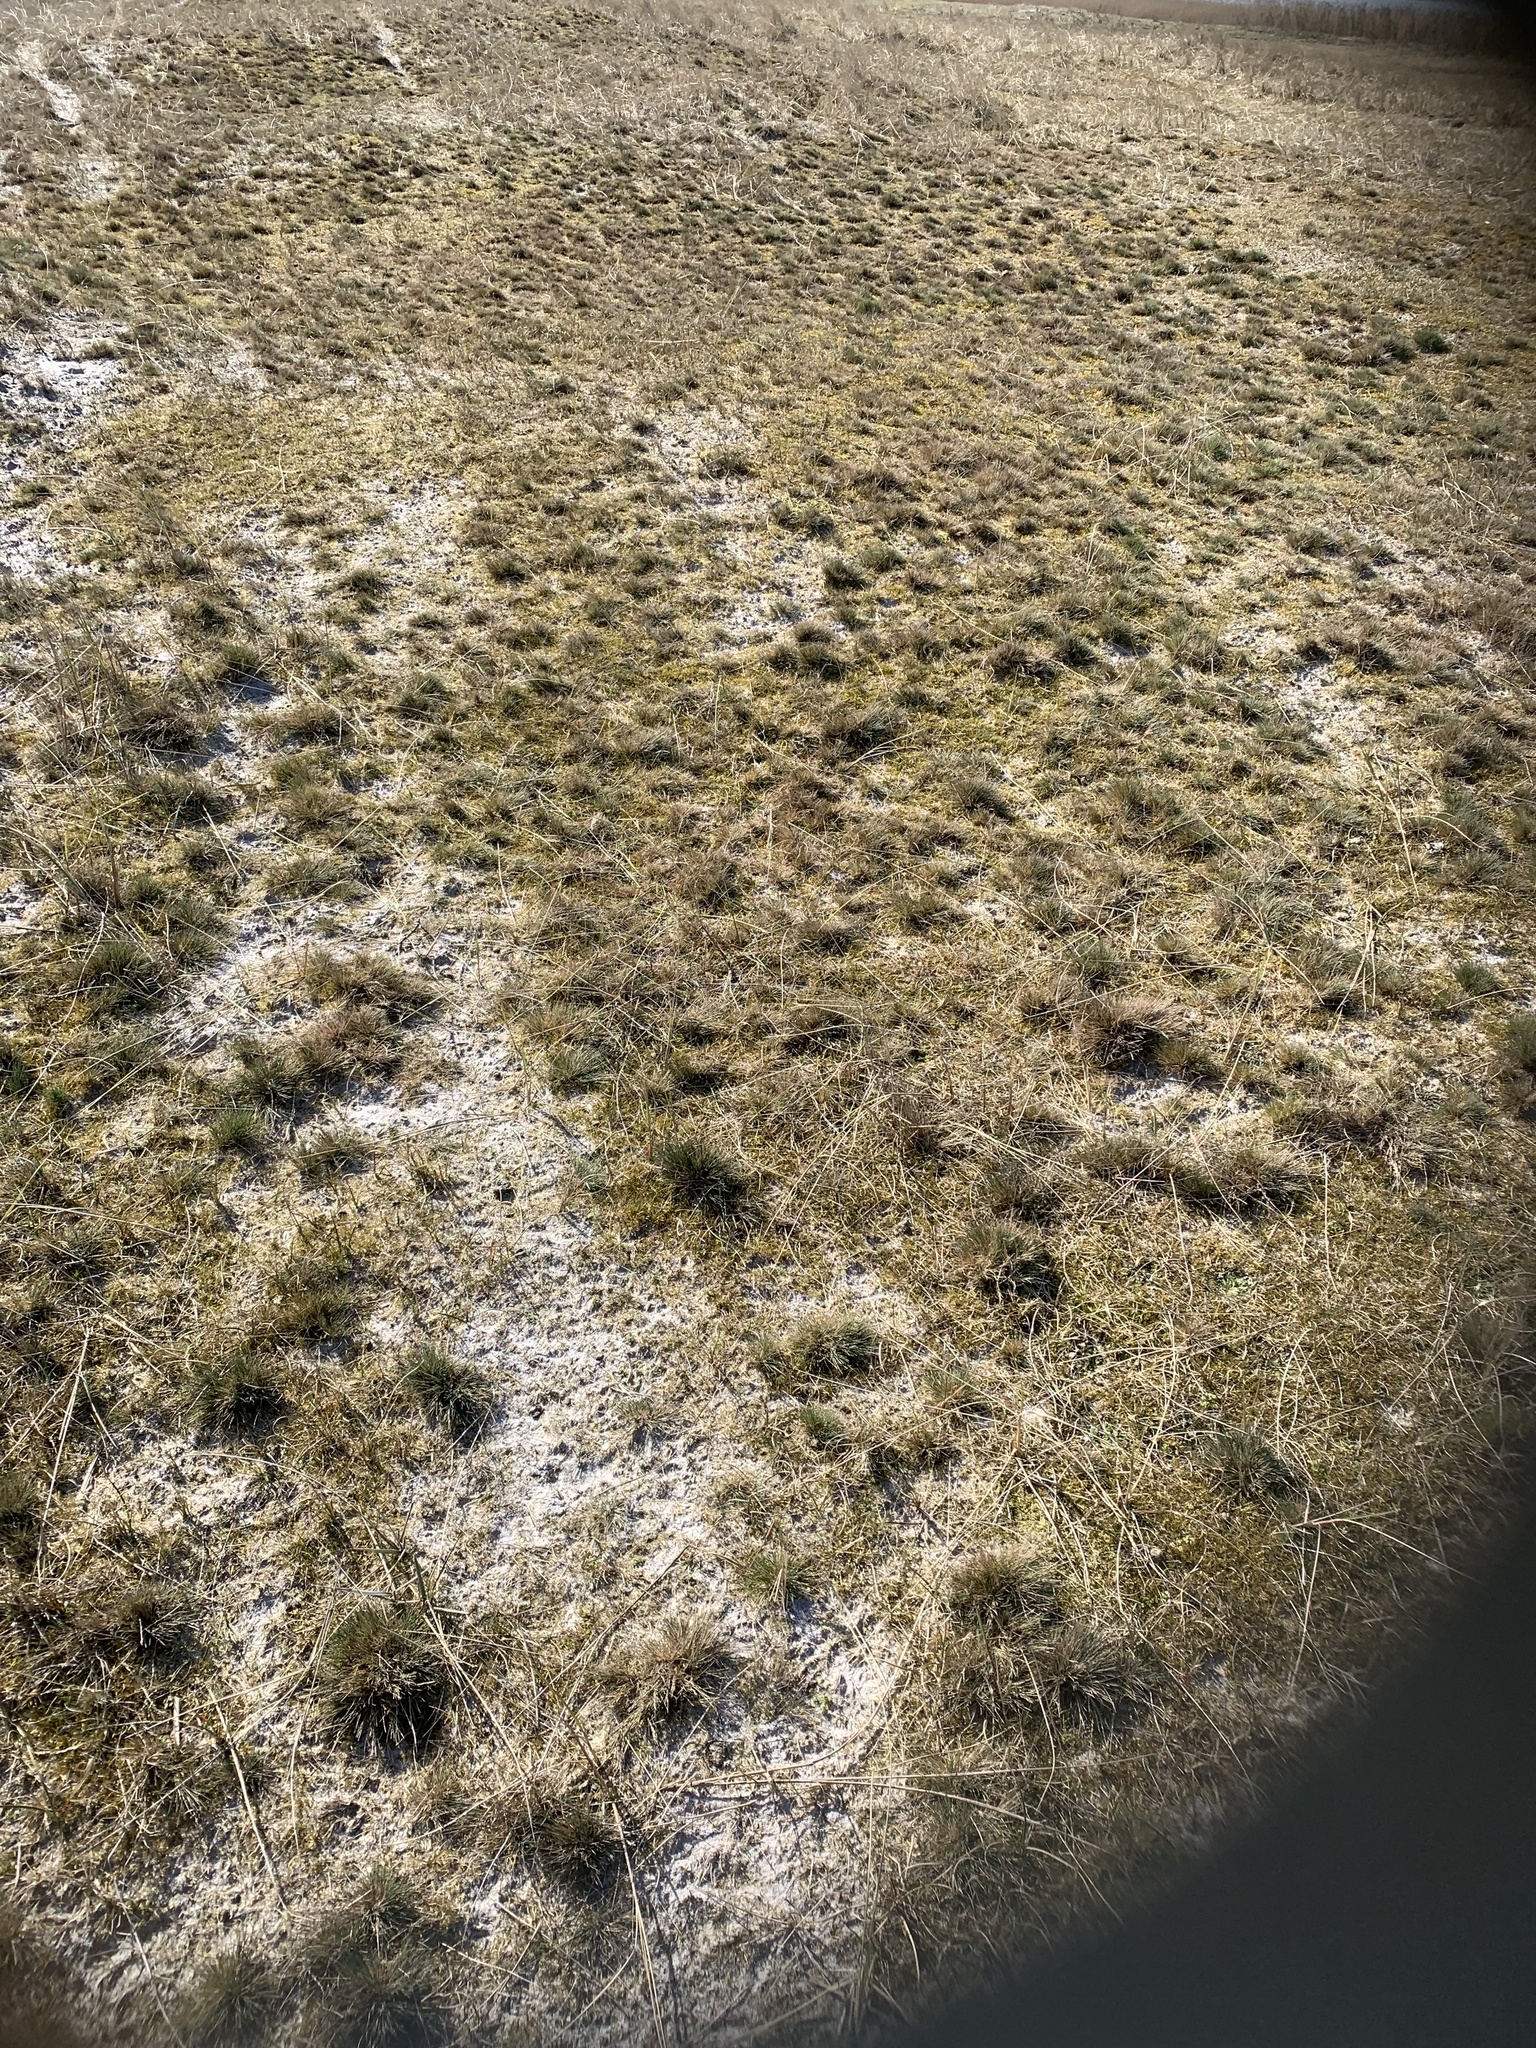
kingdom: Plantae
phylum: Tracheophyta
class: Liliopsida
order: Poales
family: Poaceae
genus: Corynephorus
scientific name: Corynephorus canescens
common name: Grey hair-grass
